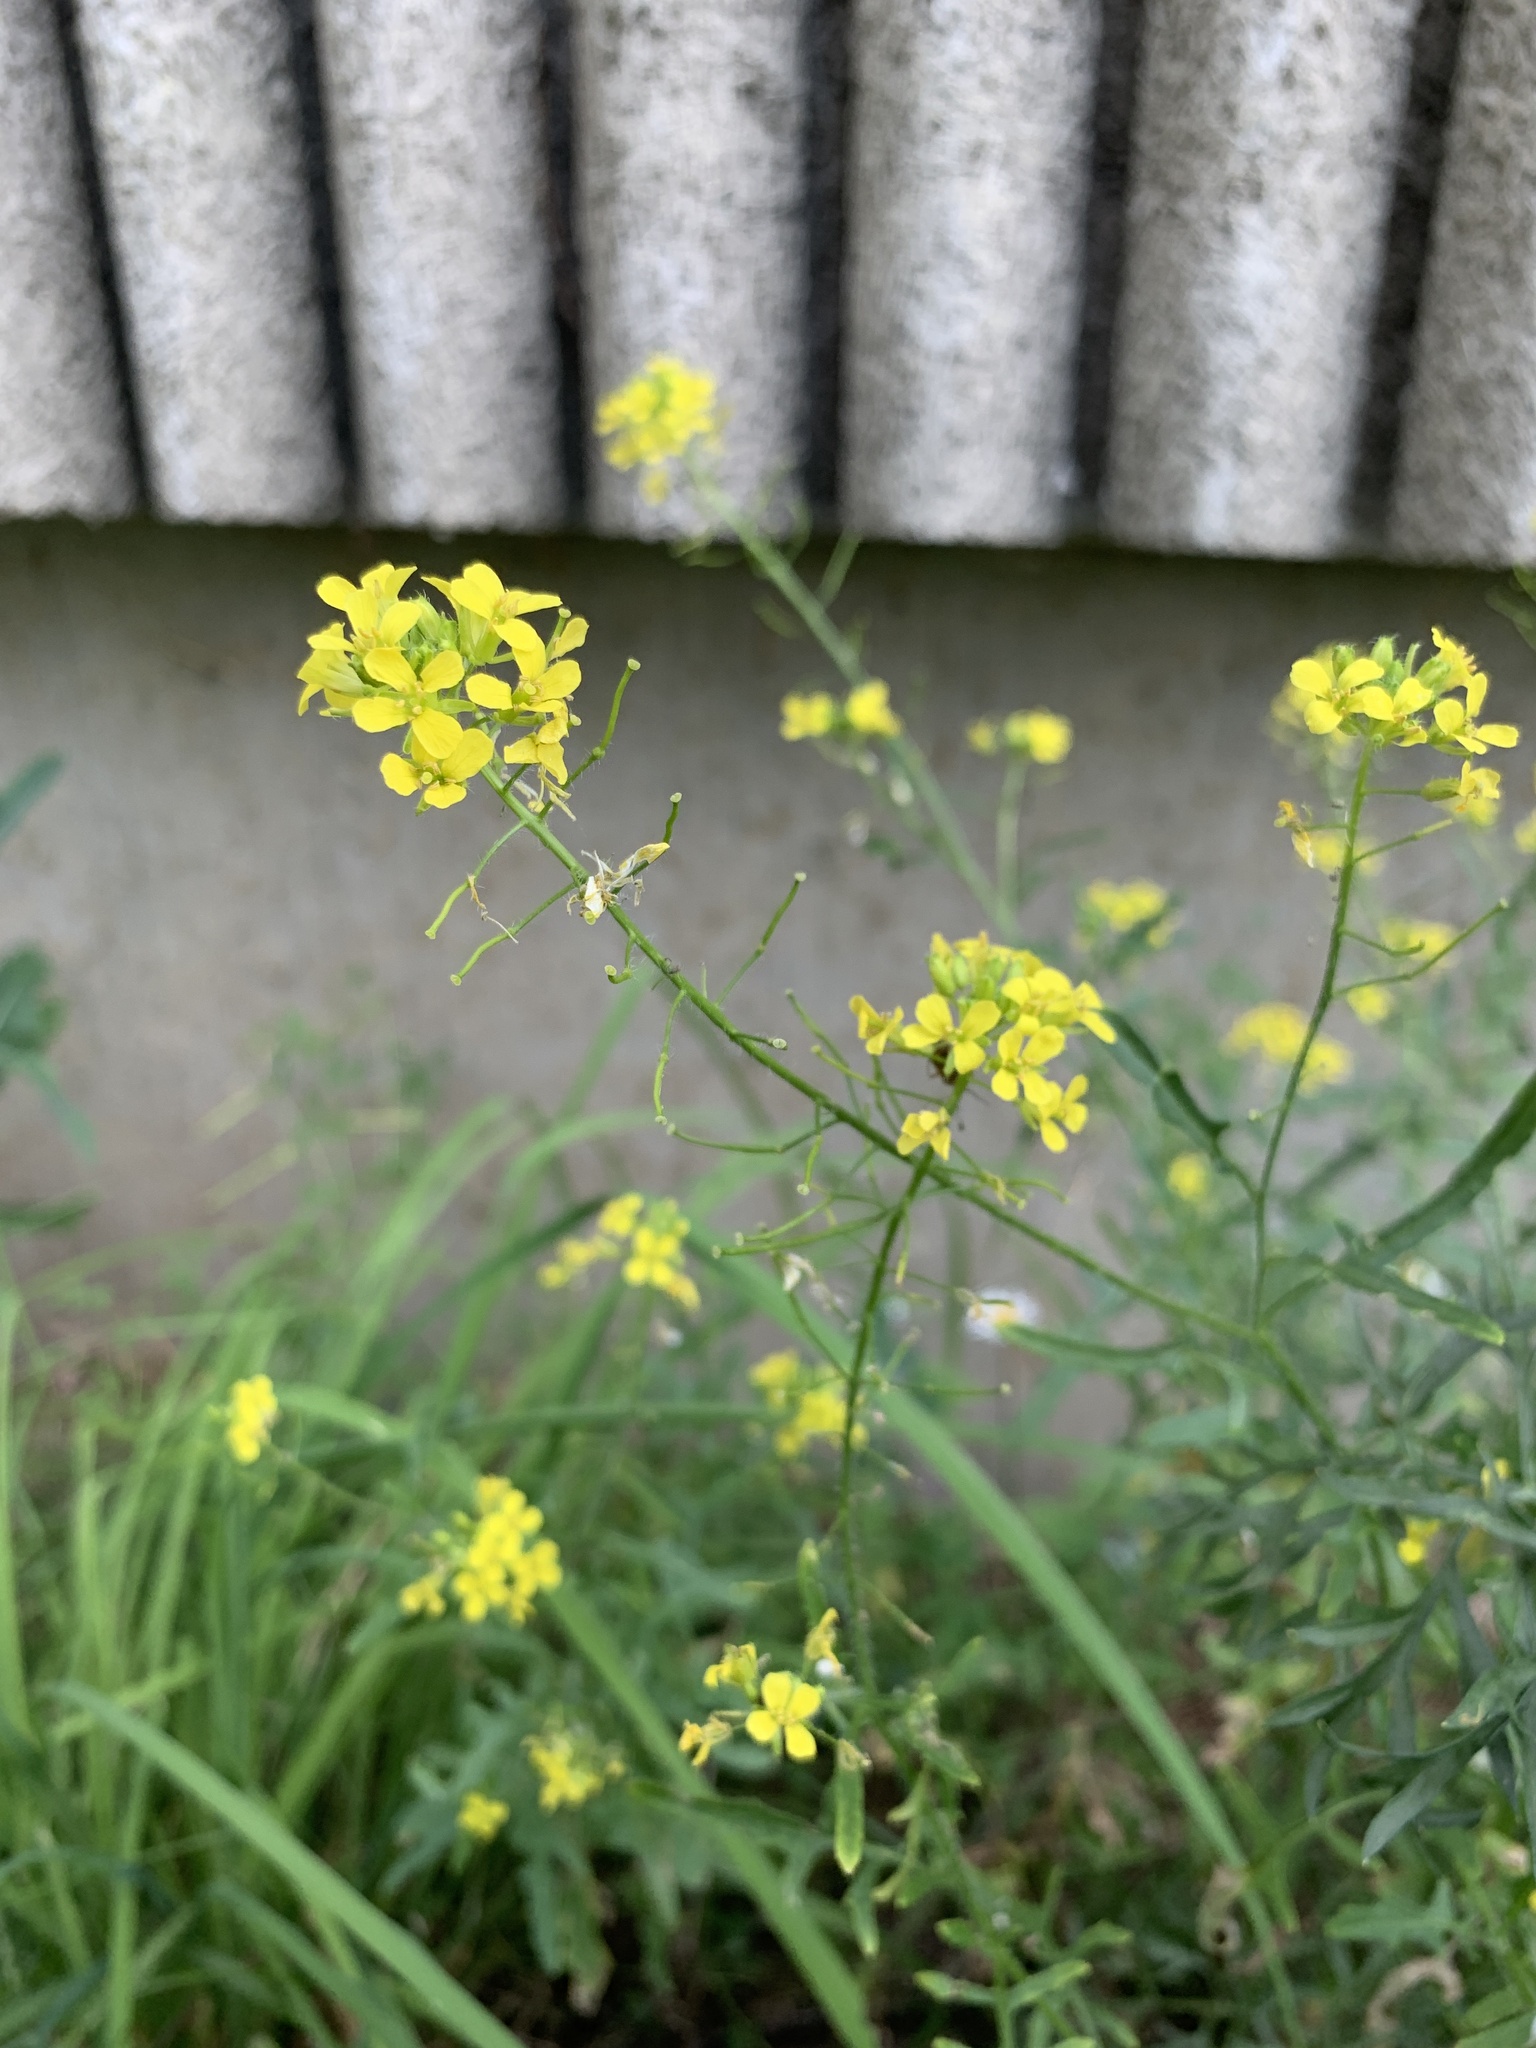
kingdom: Plantae
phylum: Tracheophyta
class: Magnoliopsida
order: Brassicales
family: Brassicaceae
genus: Sisymbrium
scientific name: Sisymbrium loeselii
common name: False london-rocket
